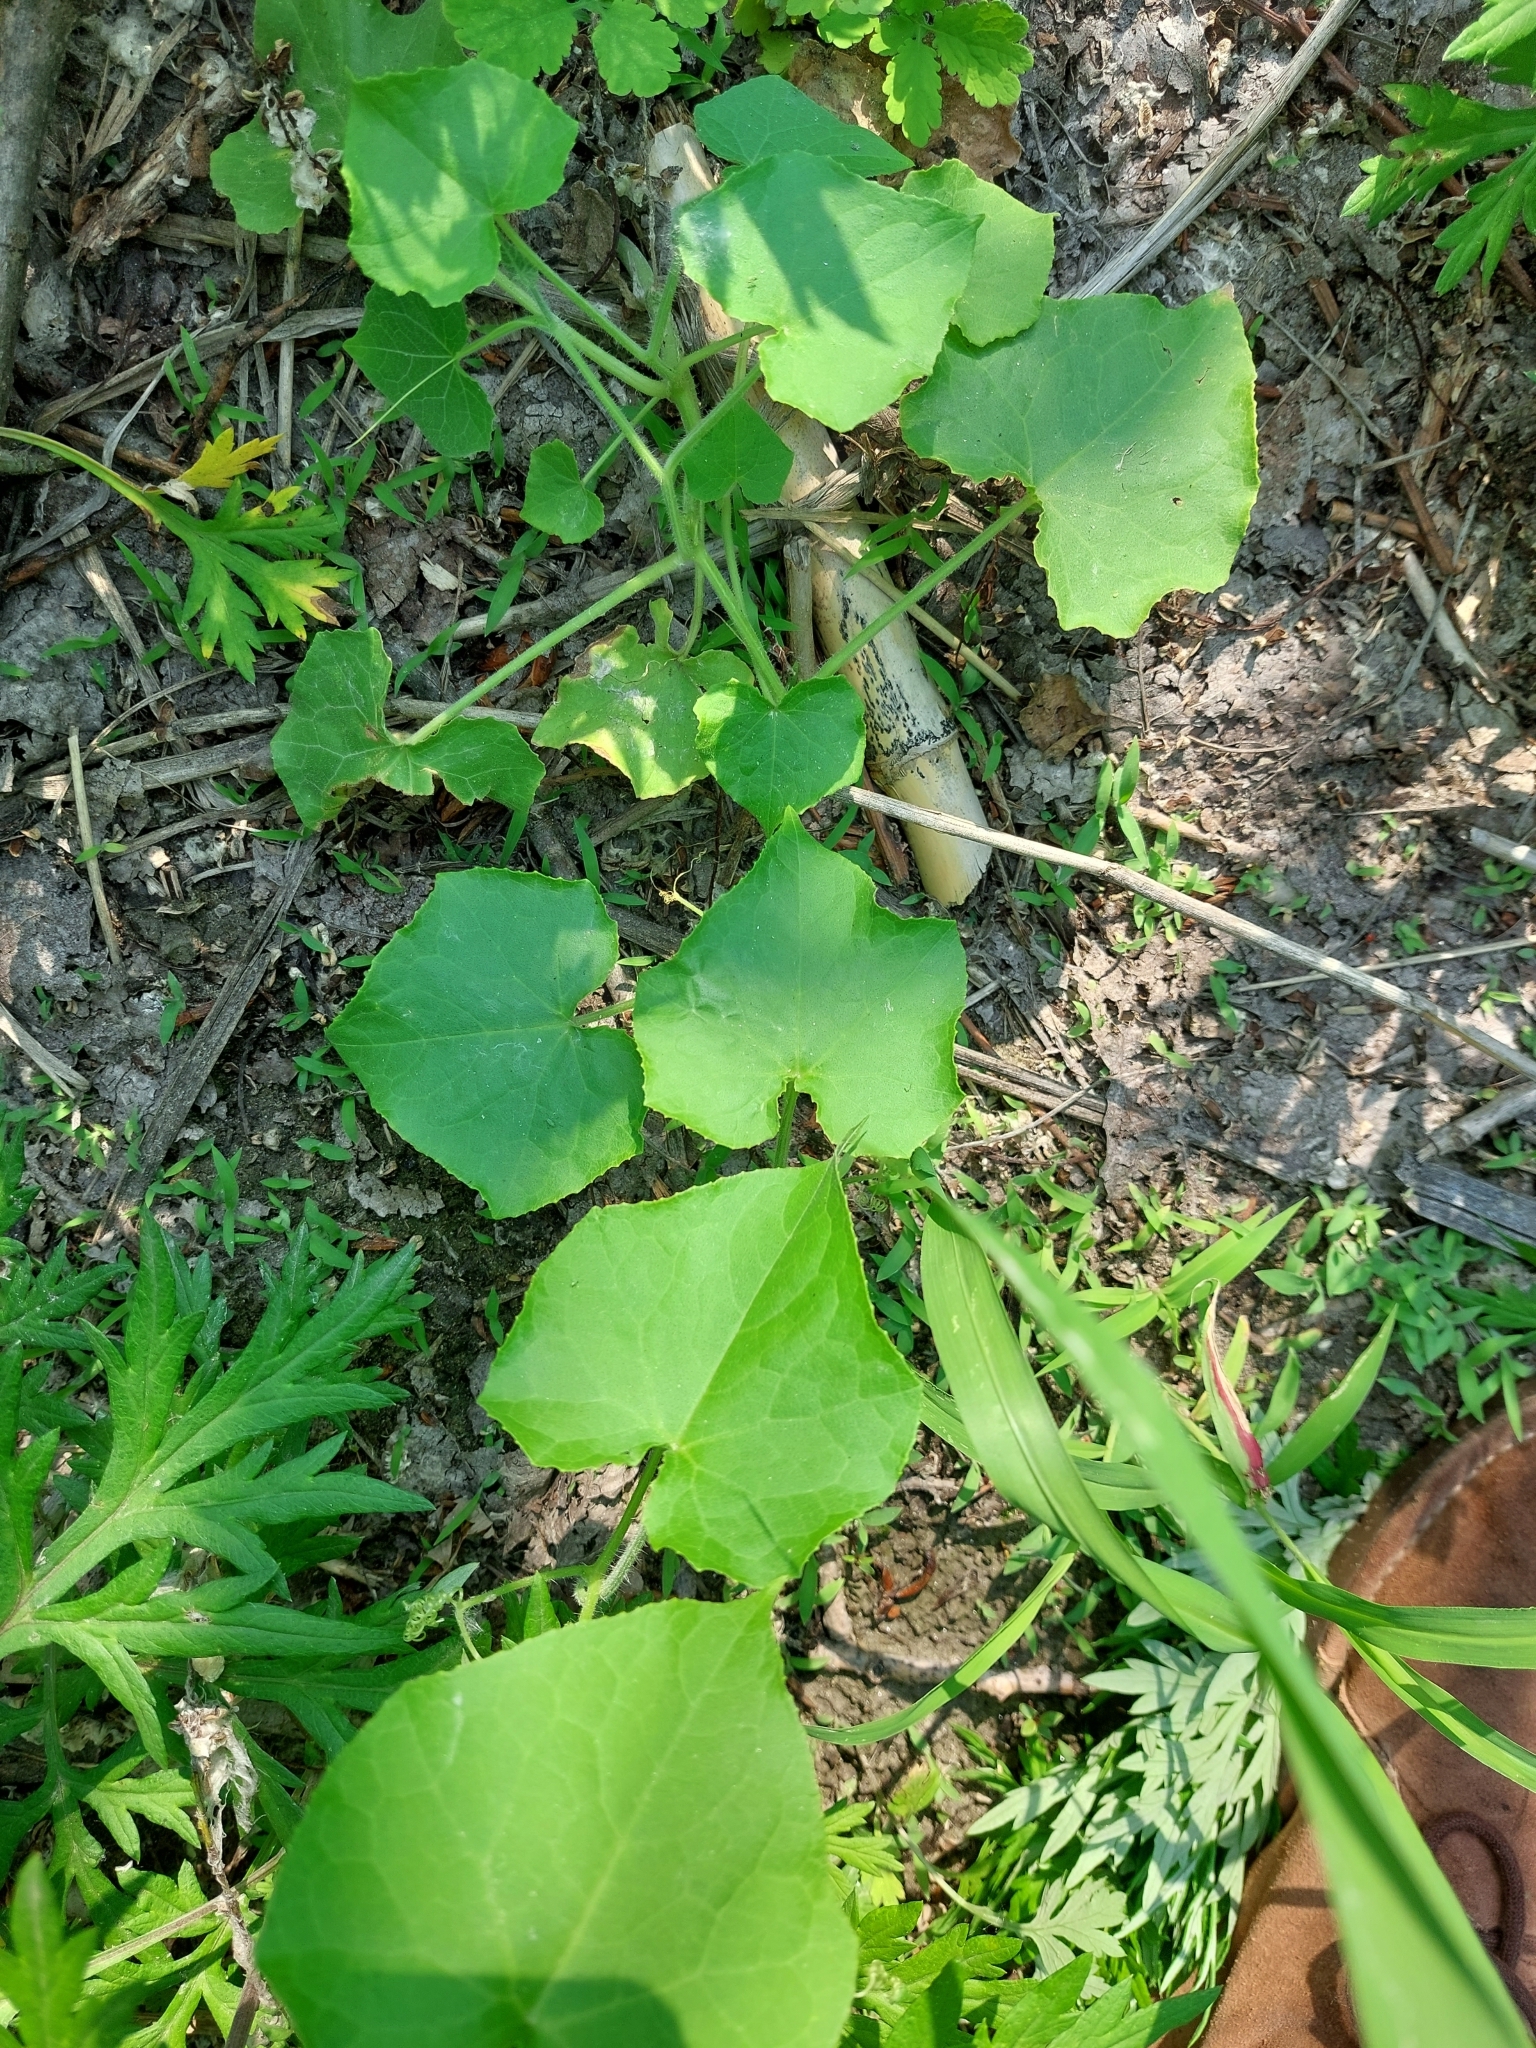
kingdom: Plantae
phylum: Tracheophyta
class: Magnoliopsida
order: Cucurbitales
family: Cucurbitaceae
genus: Sicyos
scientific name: Sicyos angulatus
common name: Angled burr cucumber
